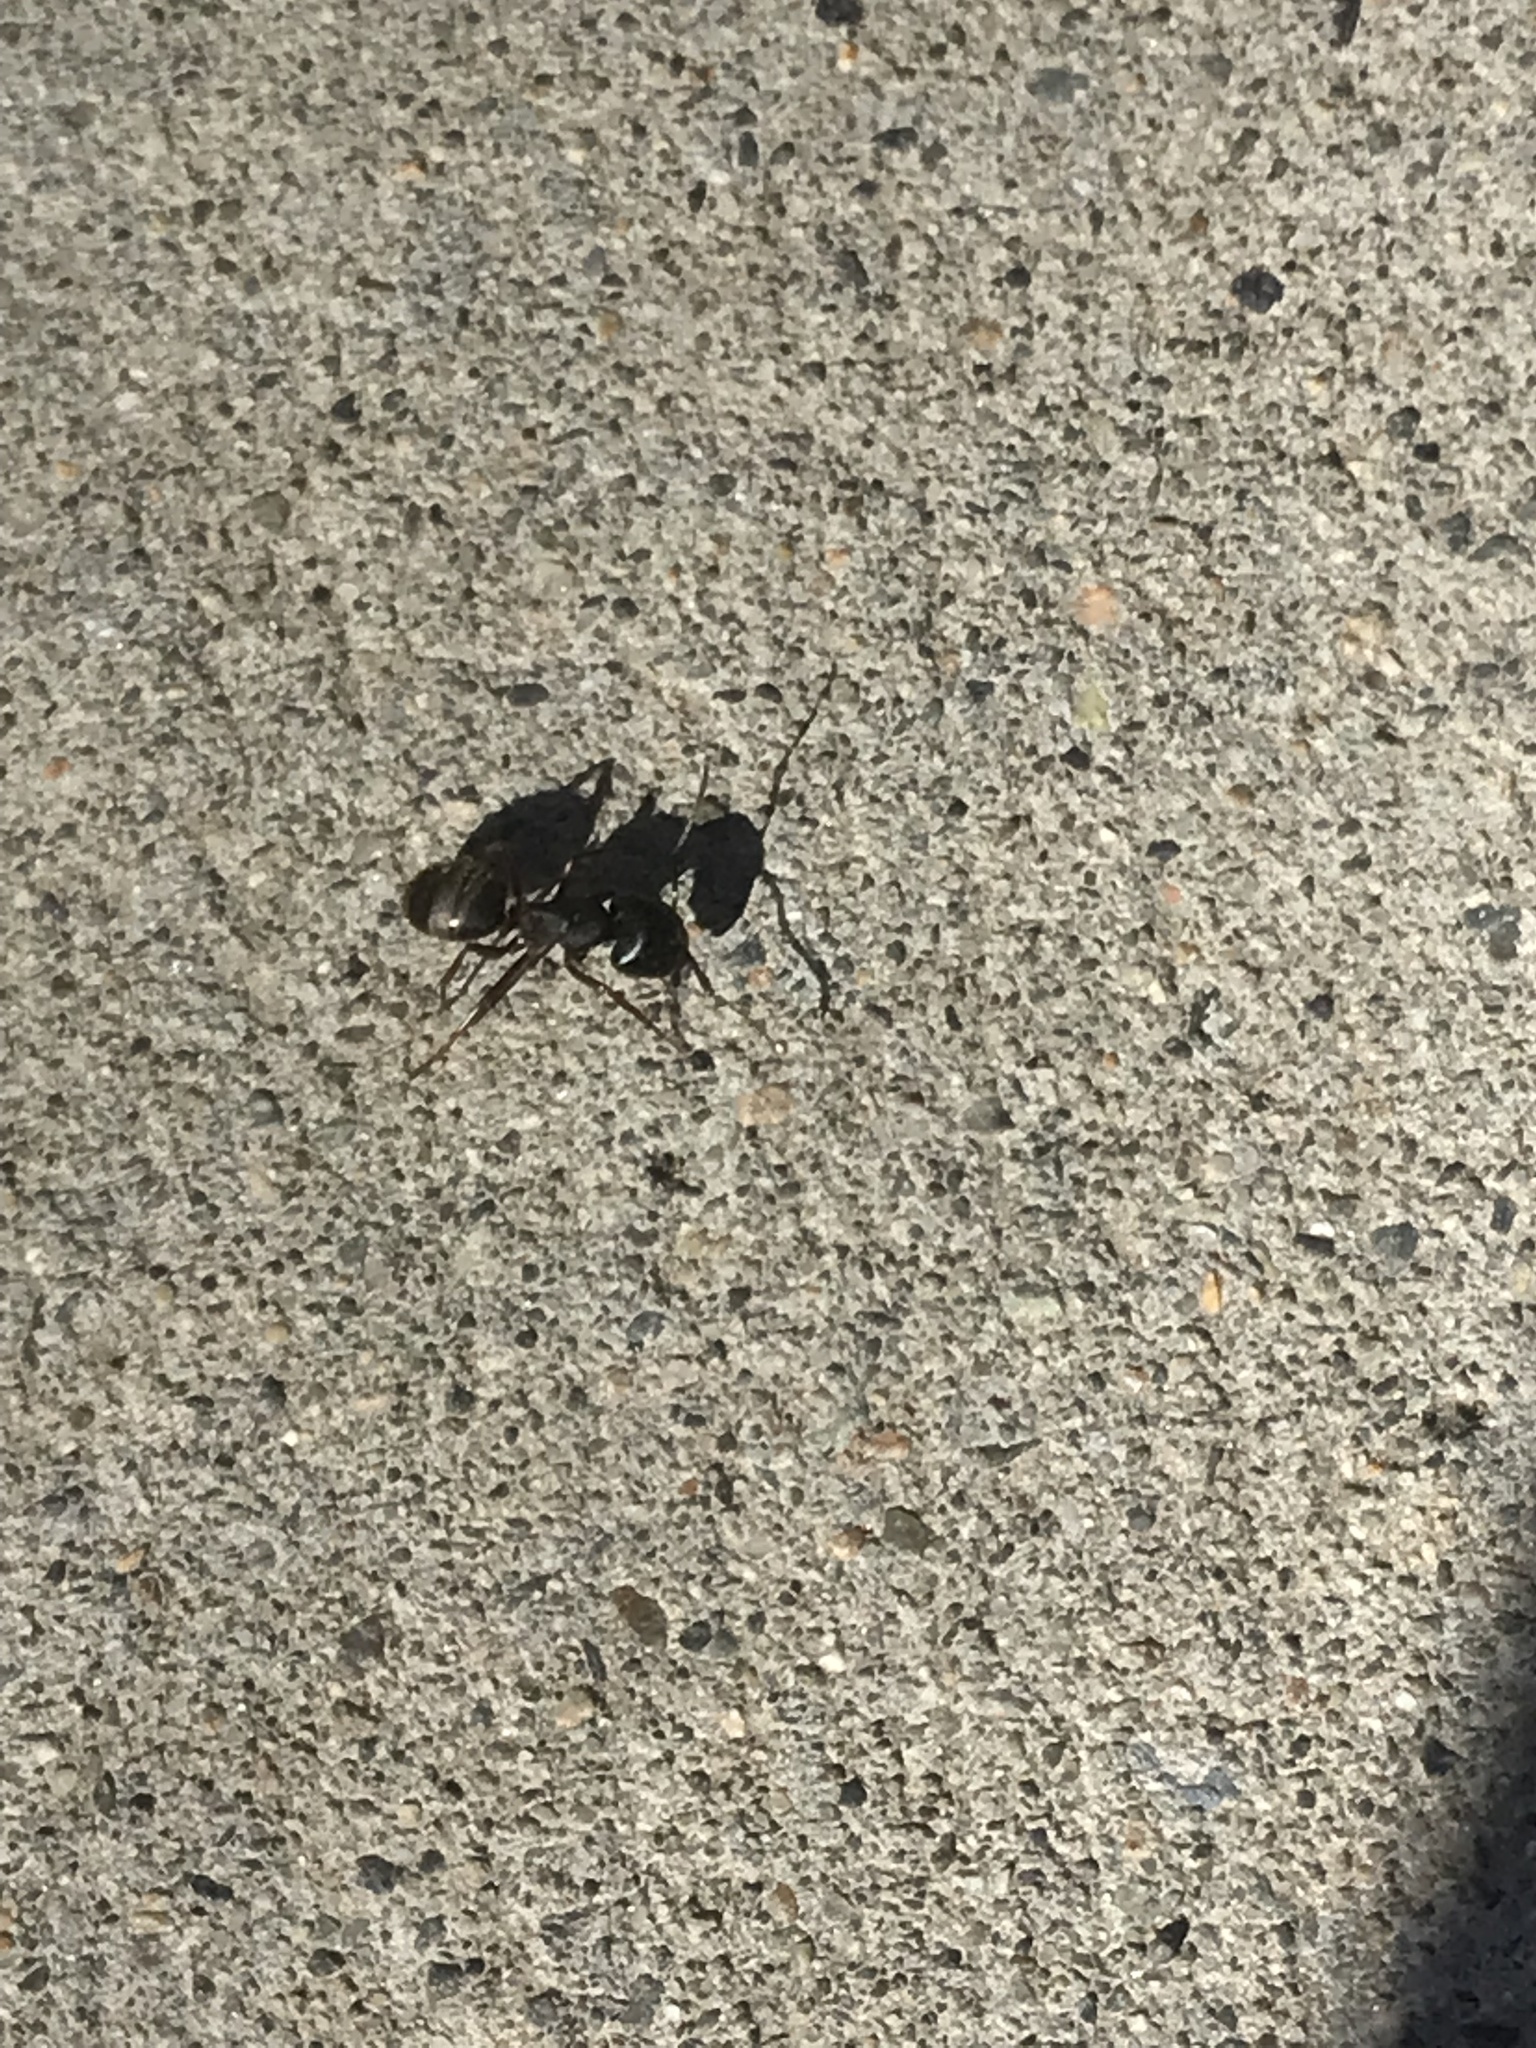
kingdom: Animalia
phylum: Arthropoda
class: Insecta
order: Hymenoptera
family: Formicidae
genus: Camponotus
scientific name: Camponotus herculeanus
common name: Hercules ant
